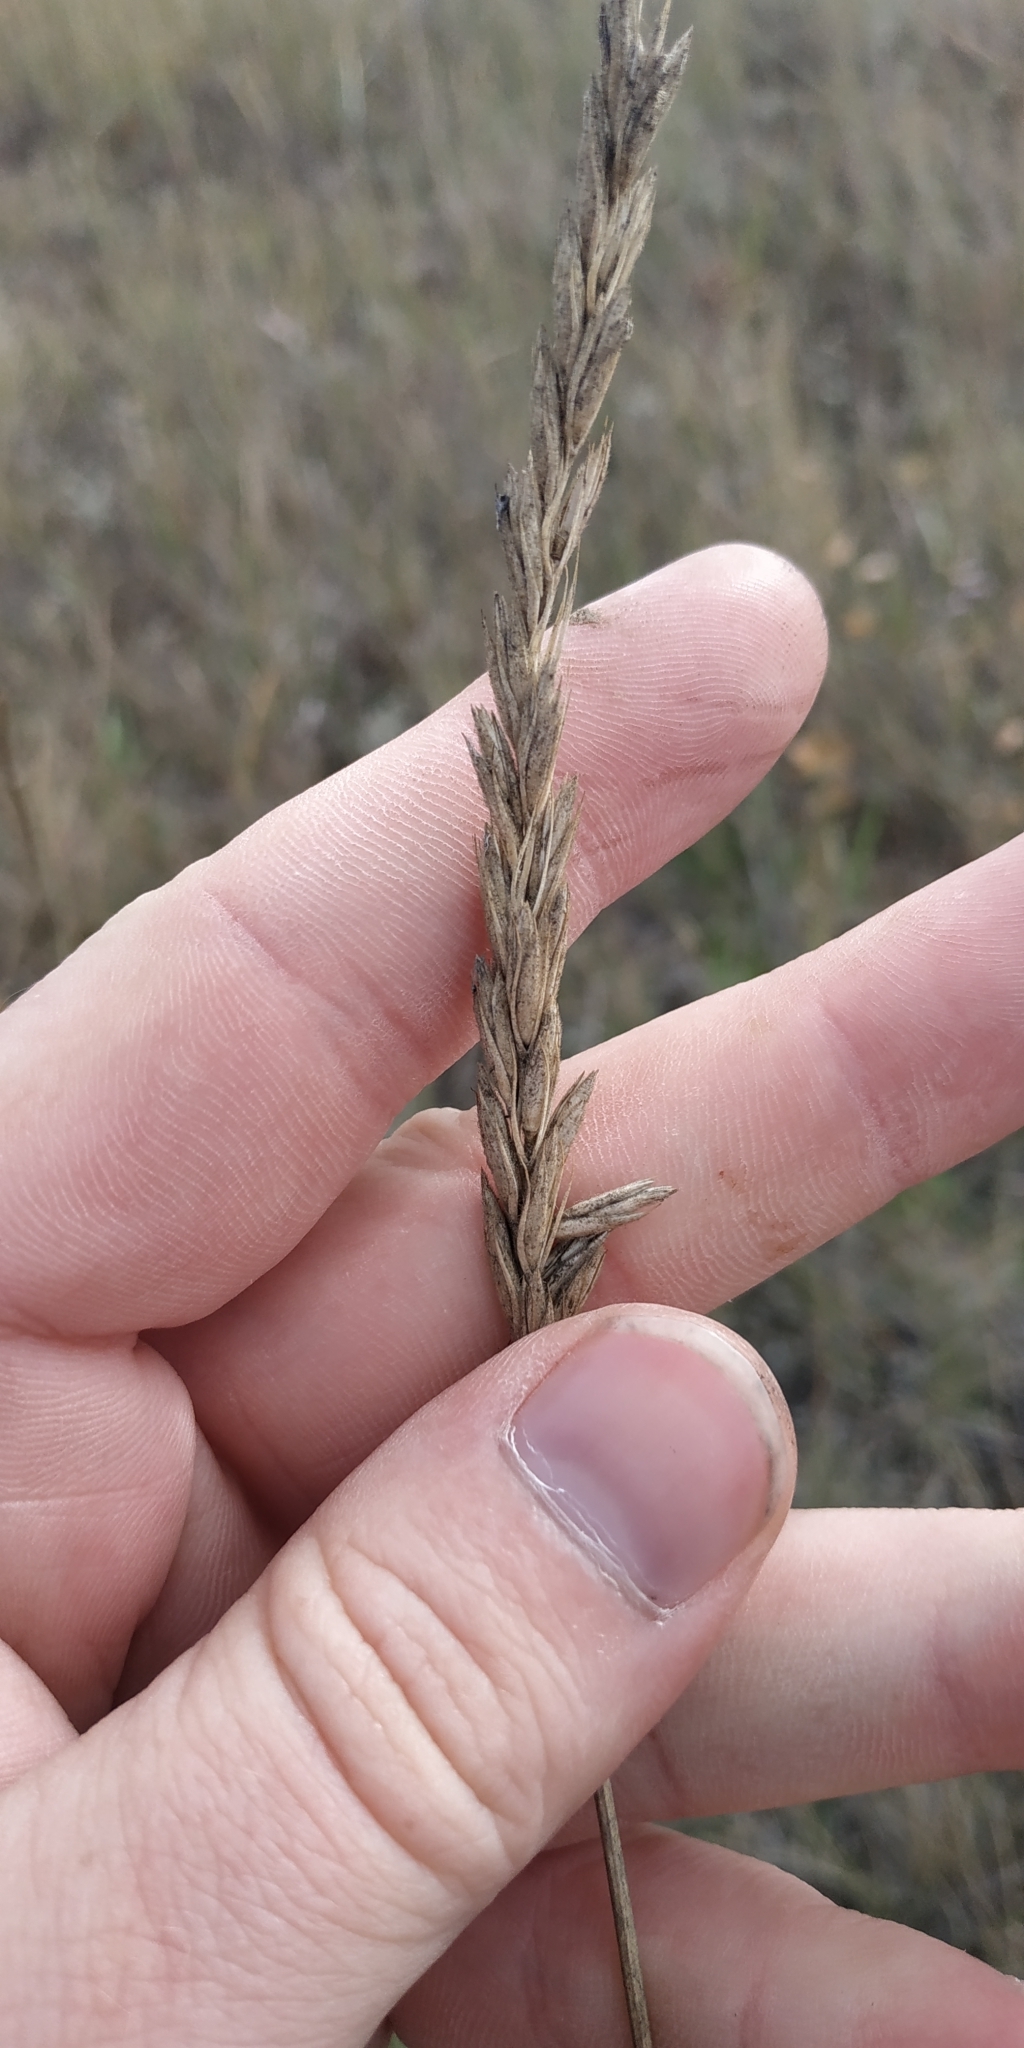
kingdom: Plantae
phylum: Tracheophyta
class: Liliopsida
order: Poales
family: Poaceae
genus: Leymus
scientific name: Leymus paboanus
